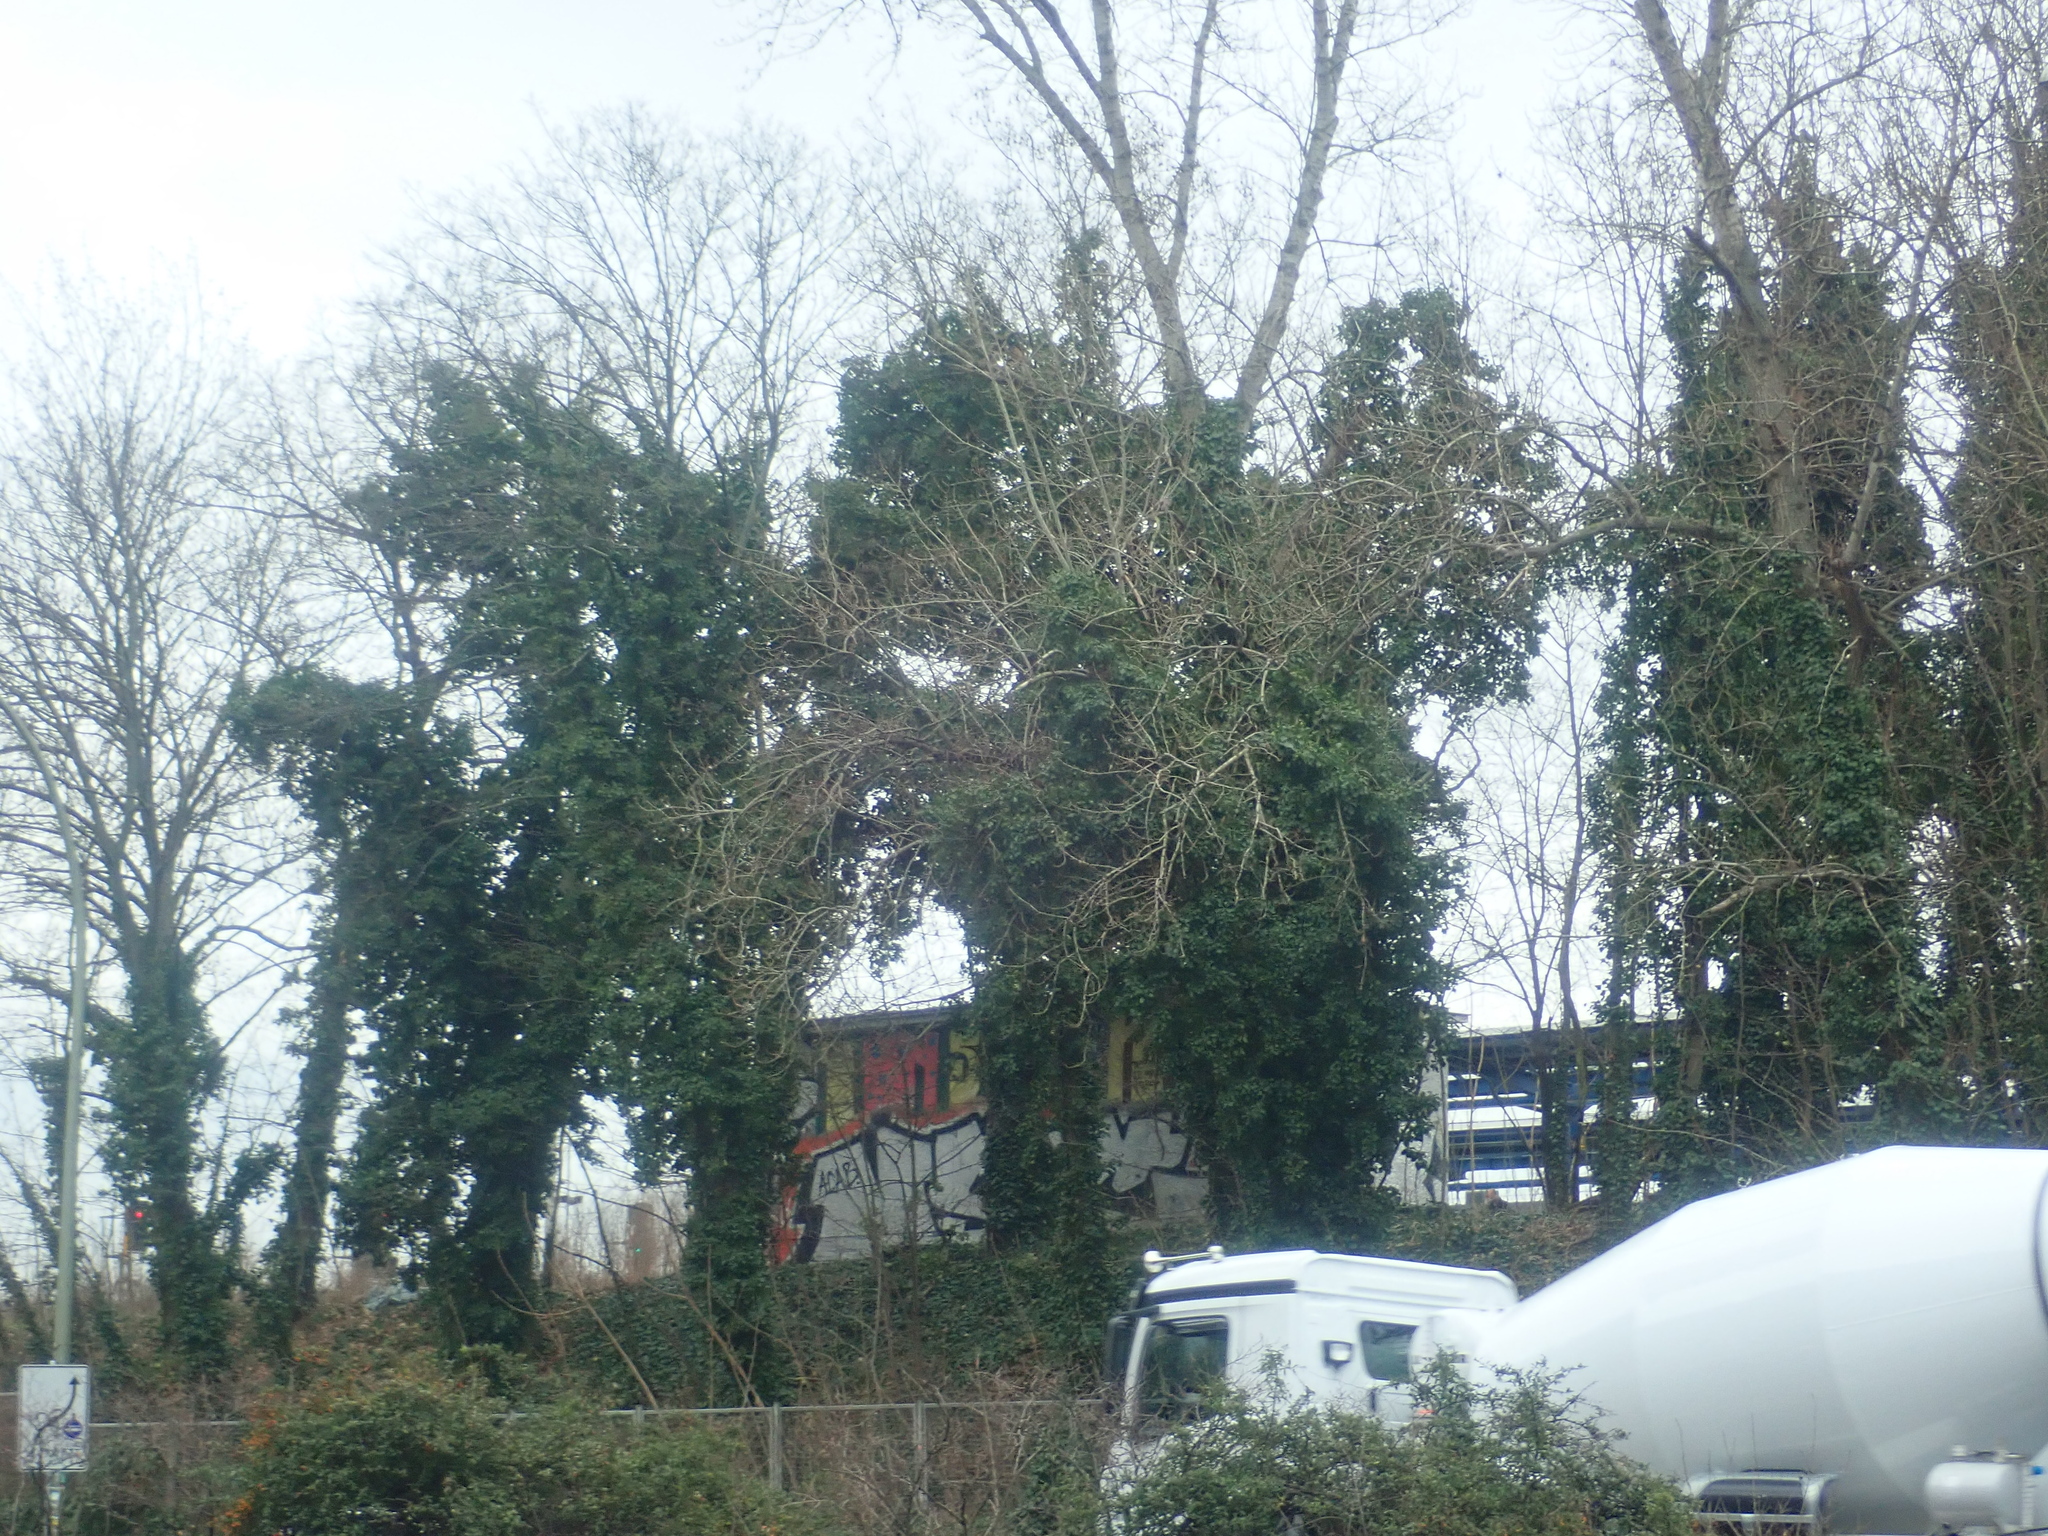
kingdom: Plantae
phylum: Tracheophyta
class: Magnoliopsida
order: Apiales
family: Araliaceae
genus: Hedera
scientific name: Hedera helix
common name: Ivy
